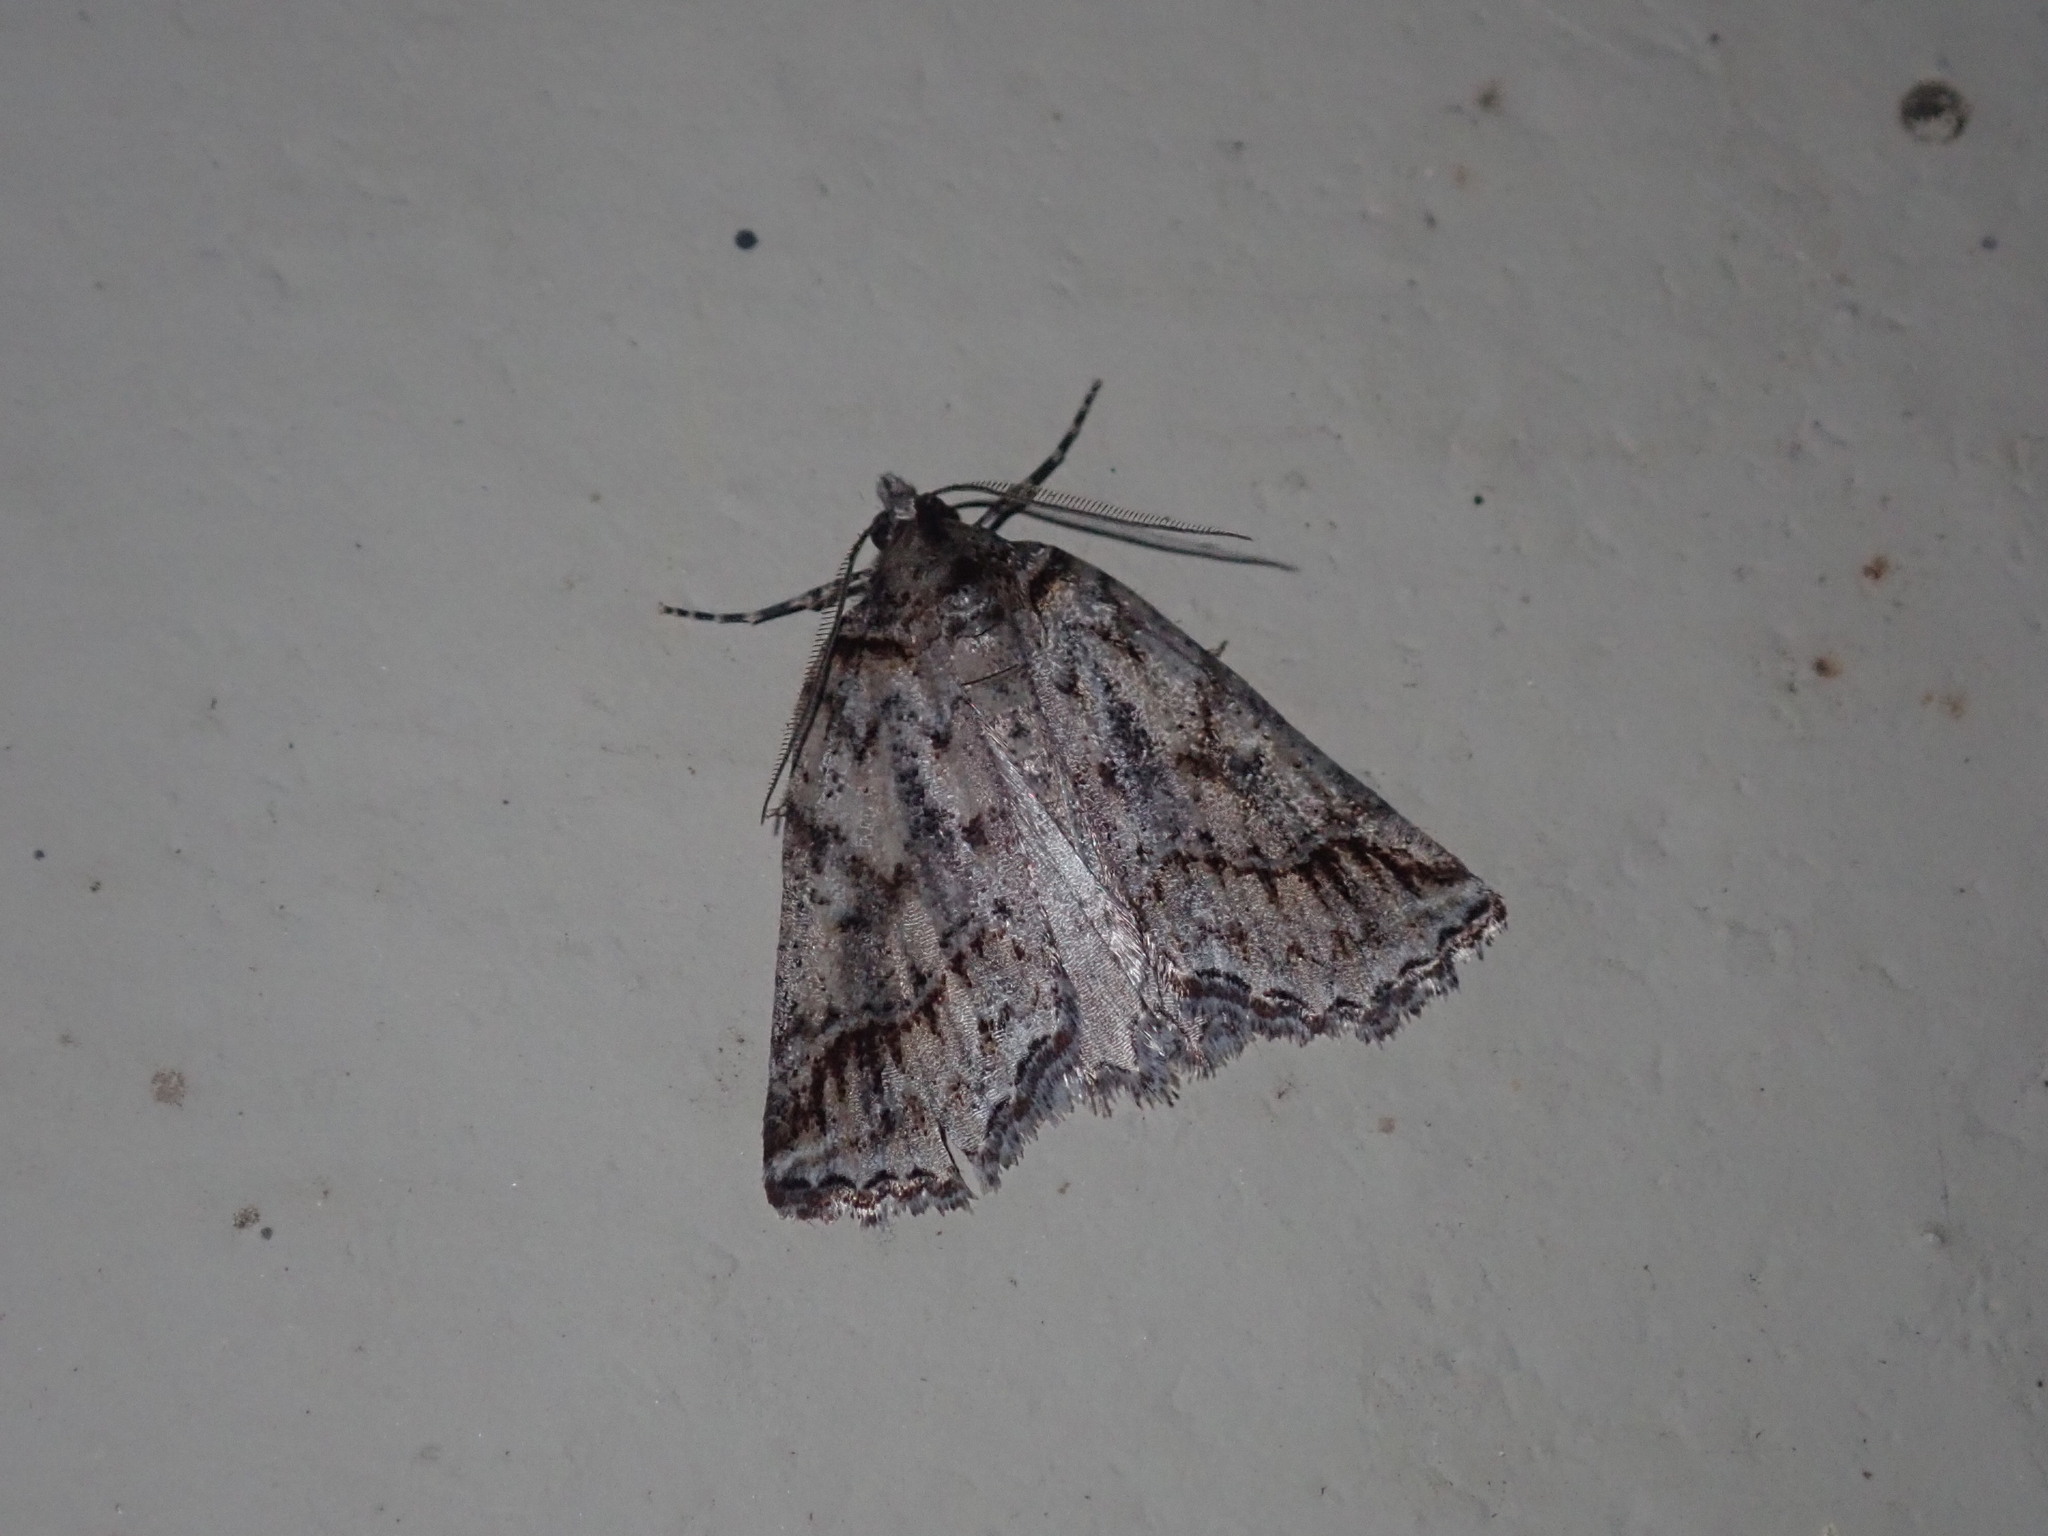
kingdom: Animalia
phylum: Arthropoda
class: Insecta
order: Lepidoptera
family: Geometridae
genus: Plesiolaea
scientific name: Plesiolaea promacha
